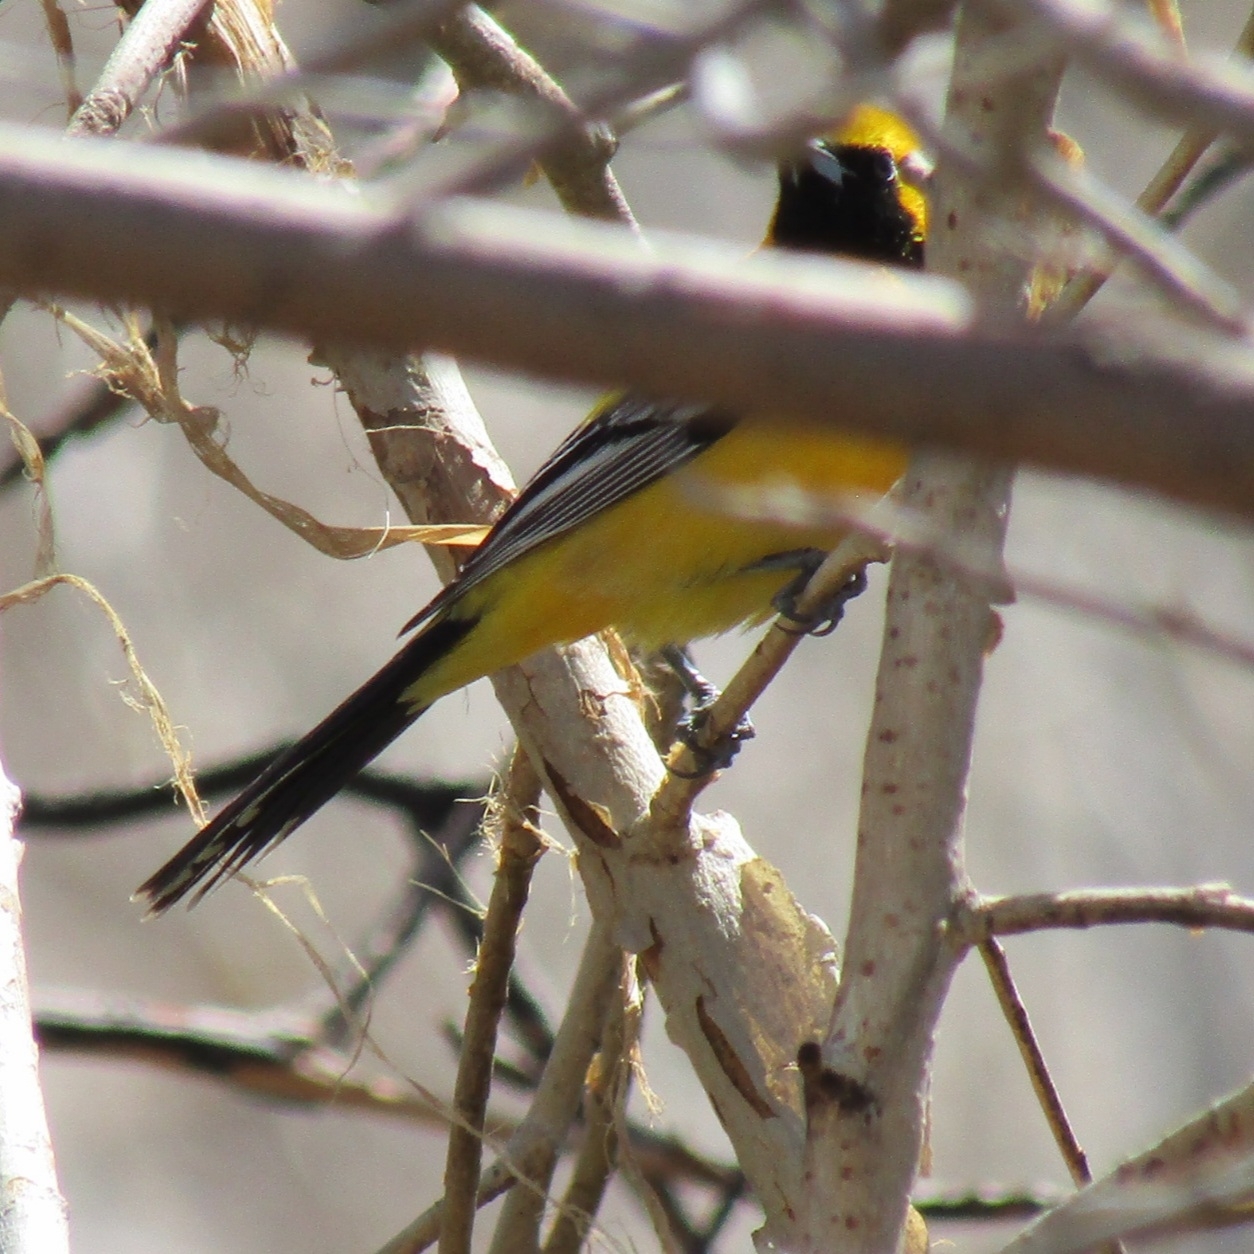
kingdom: Animalia
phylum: Chordata
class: Aves
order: Passeriformes
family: Icteridae
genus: Icterus
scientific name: Icterus cucullatus
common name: Hooded oriole
